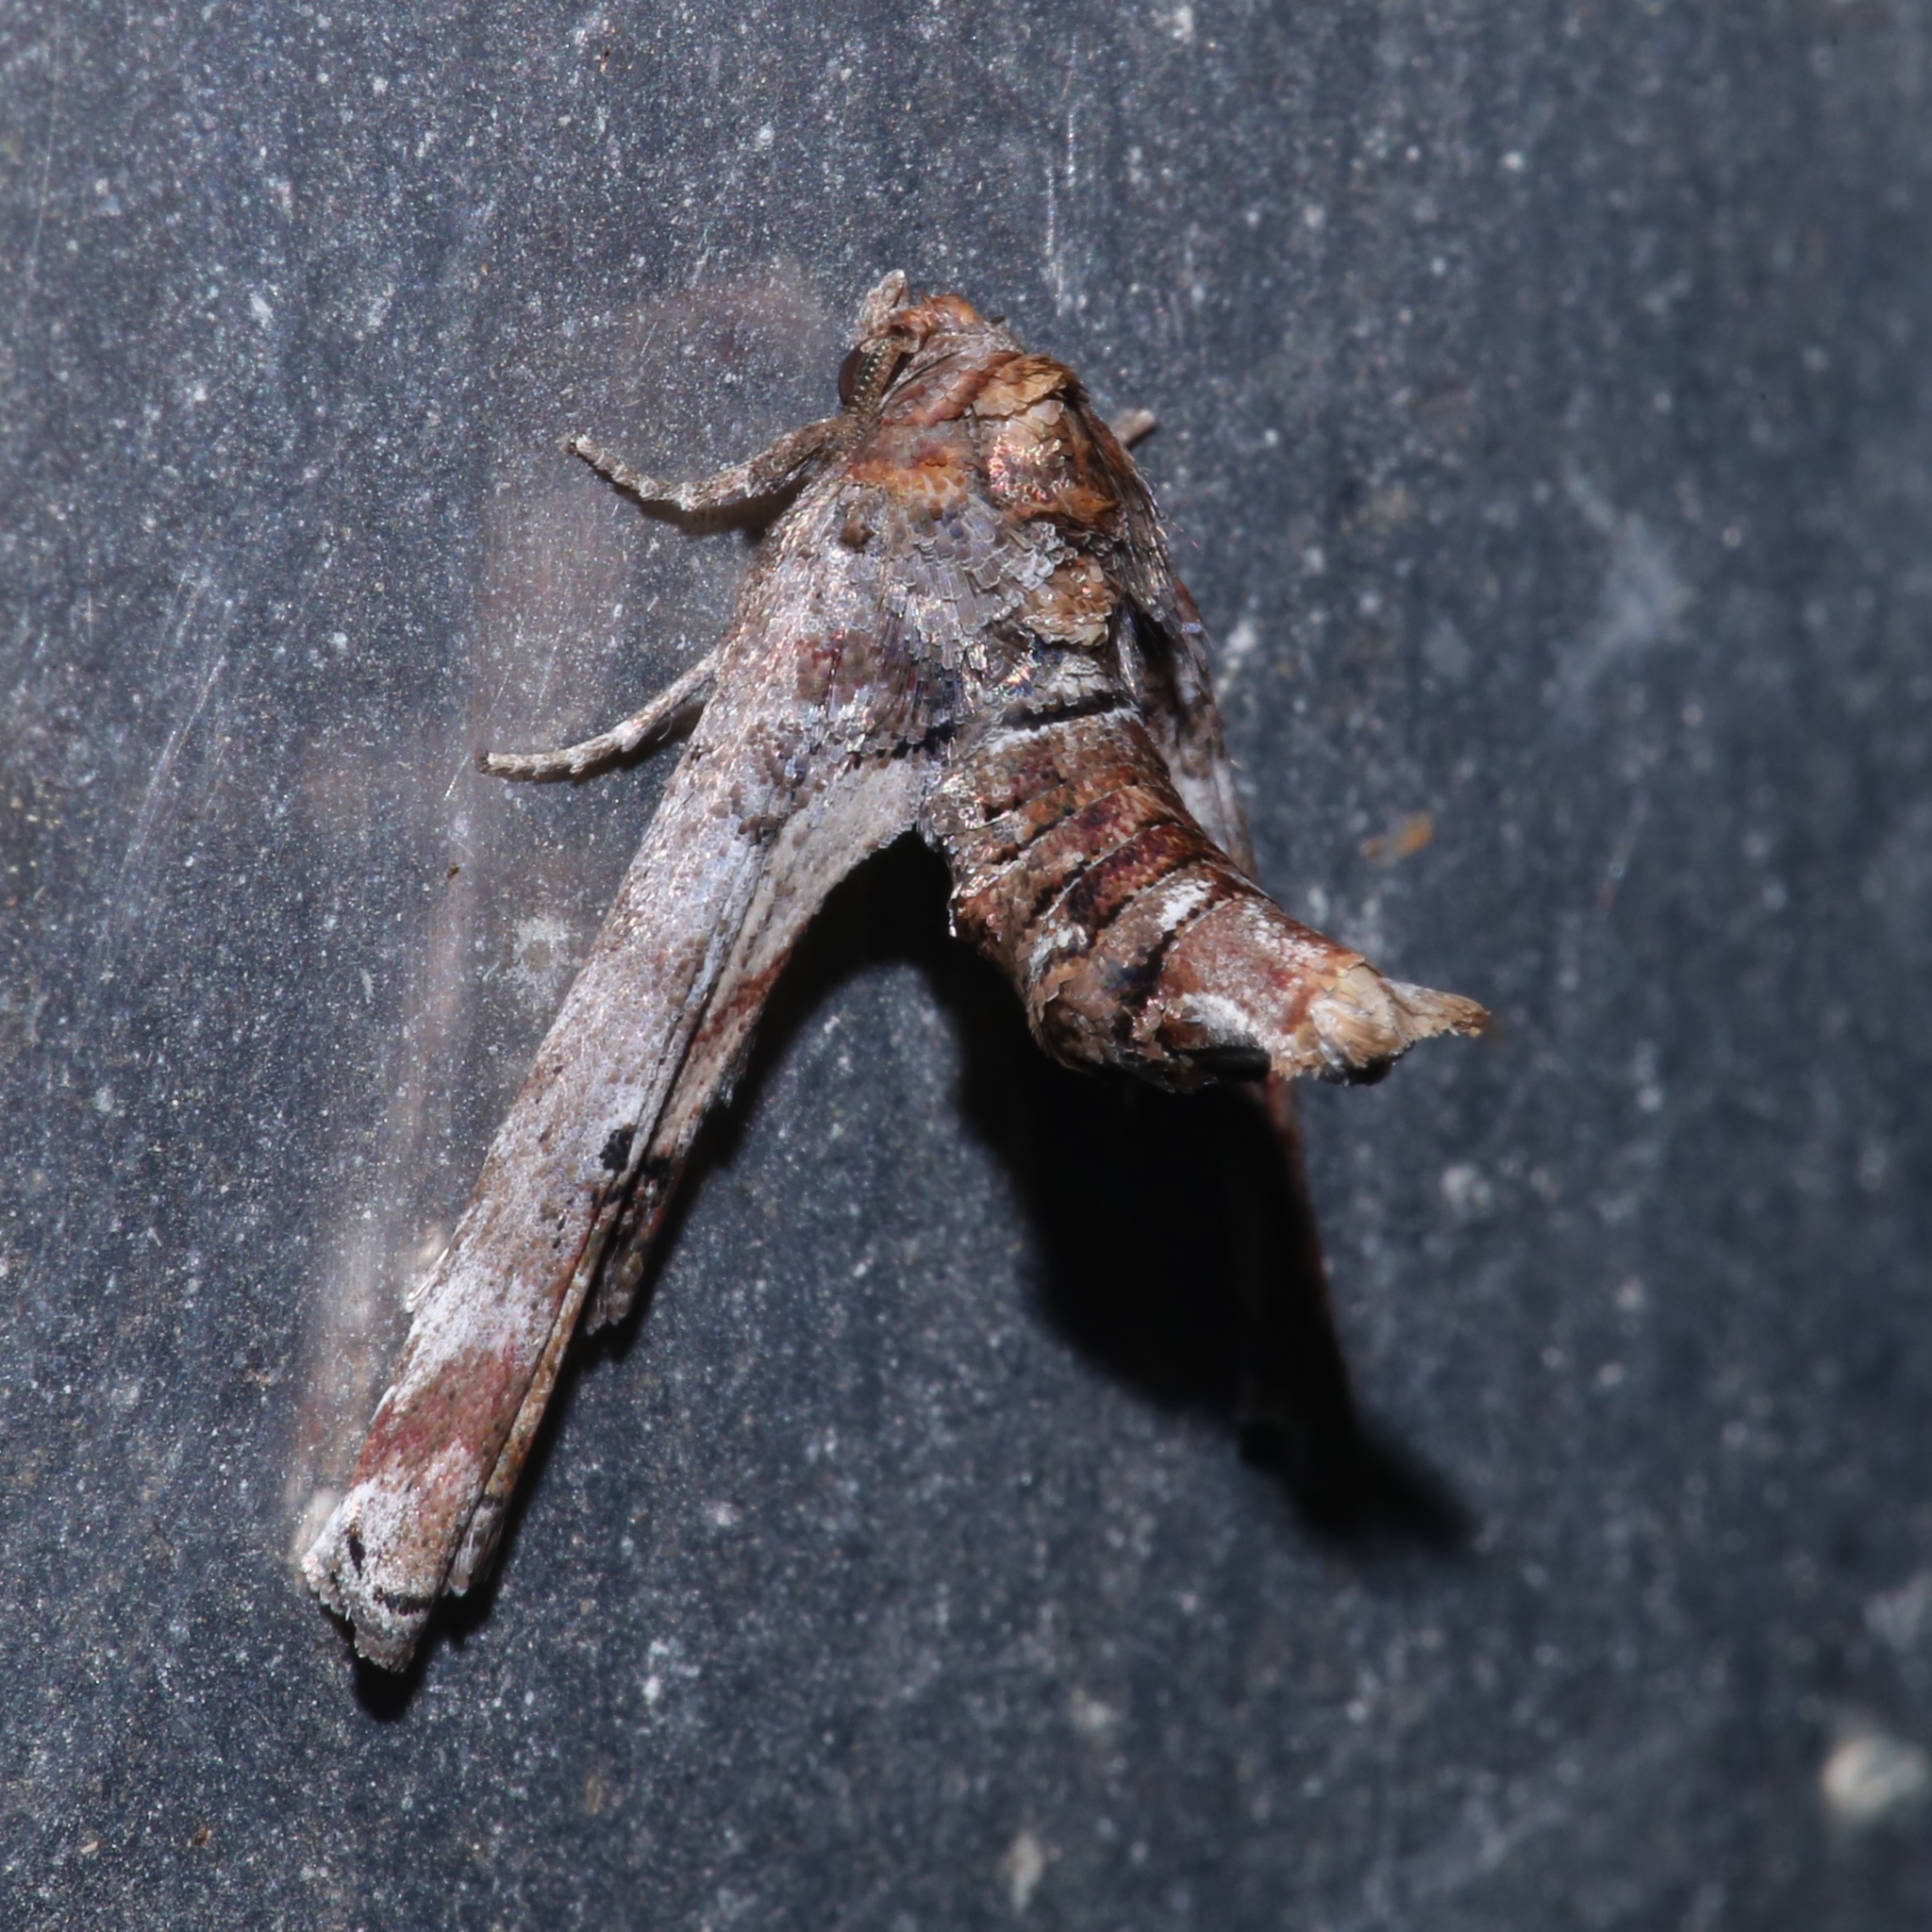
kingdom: Animalia
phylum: Arthropoda
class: Insecta
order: Lepidoptera
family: Euteliidae
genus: Marathyssa
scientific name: Marathyssa inficita
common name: Dark marathyssa moth
